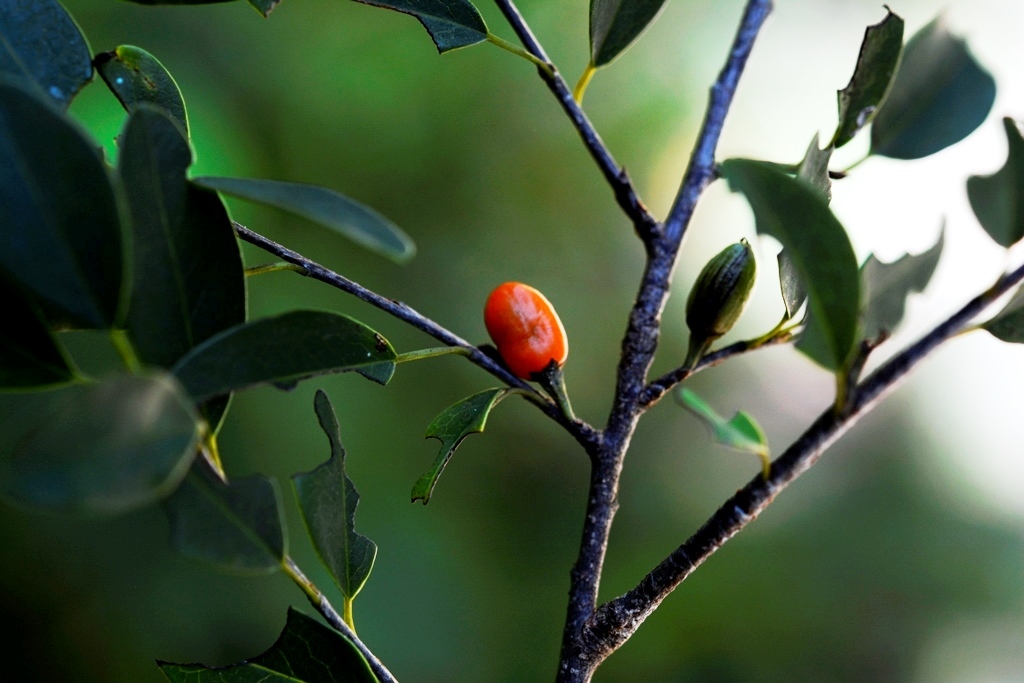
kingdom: Plantae
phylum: Tracheophyta
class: Magnoliopsida
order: Malpighiales
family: Erythroxylaceae
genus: Erythroxylum
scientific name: Erythroxylum guatemalense
